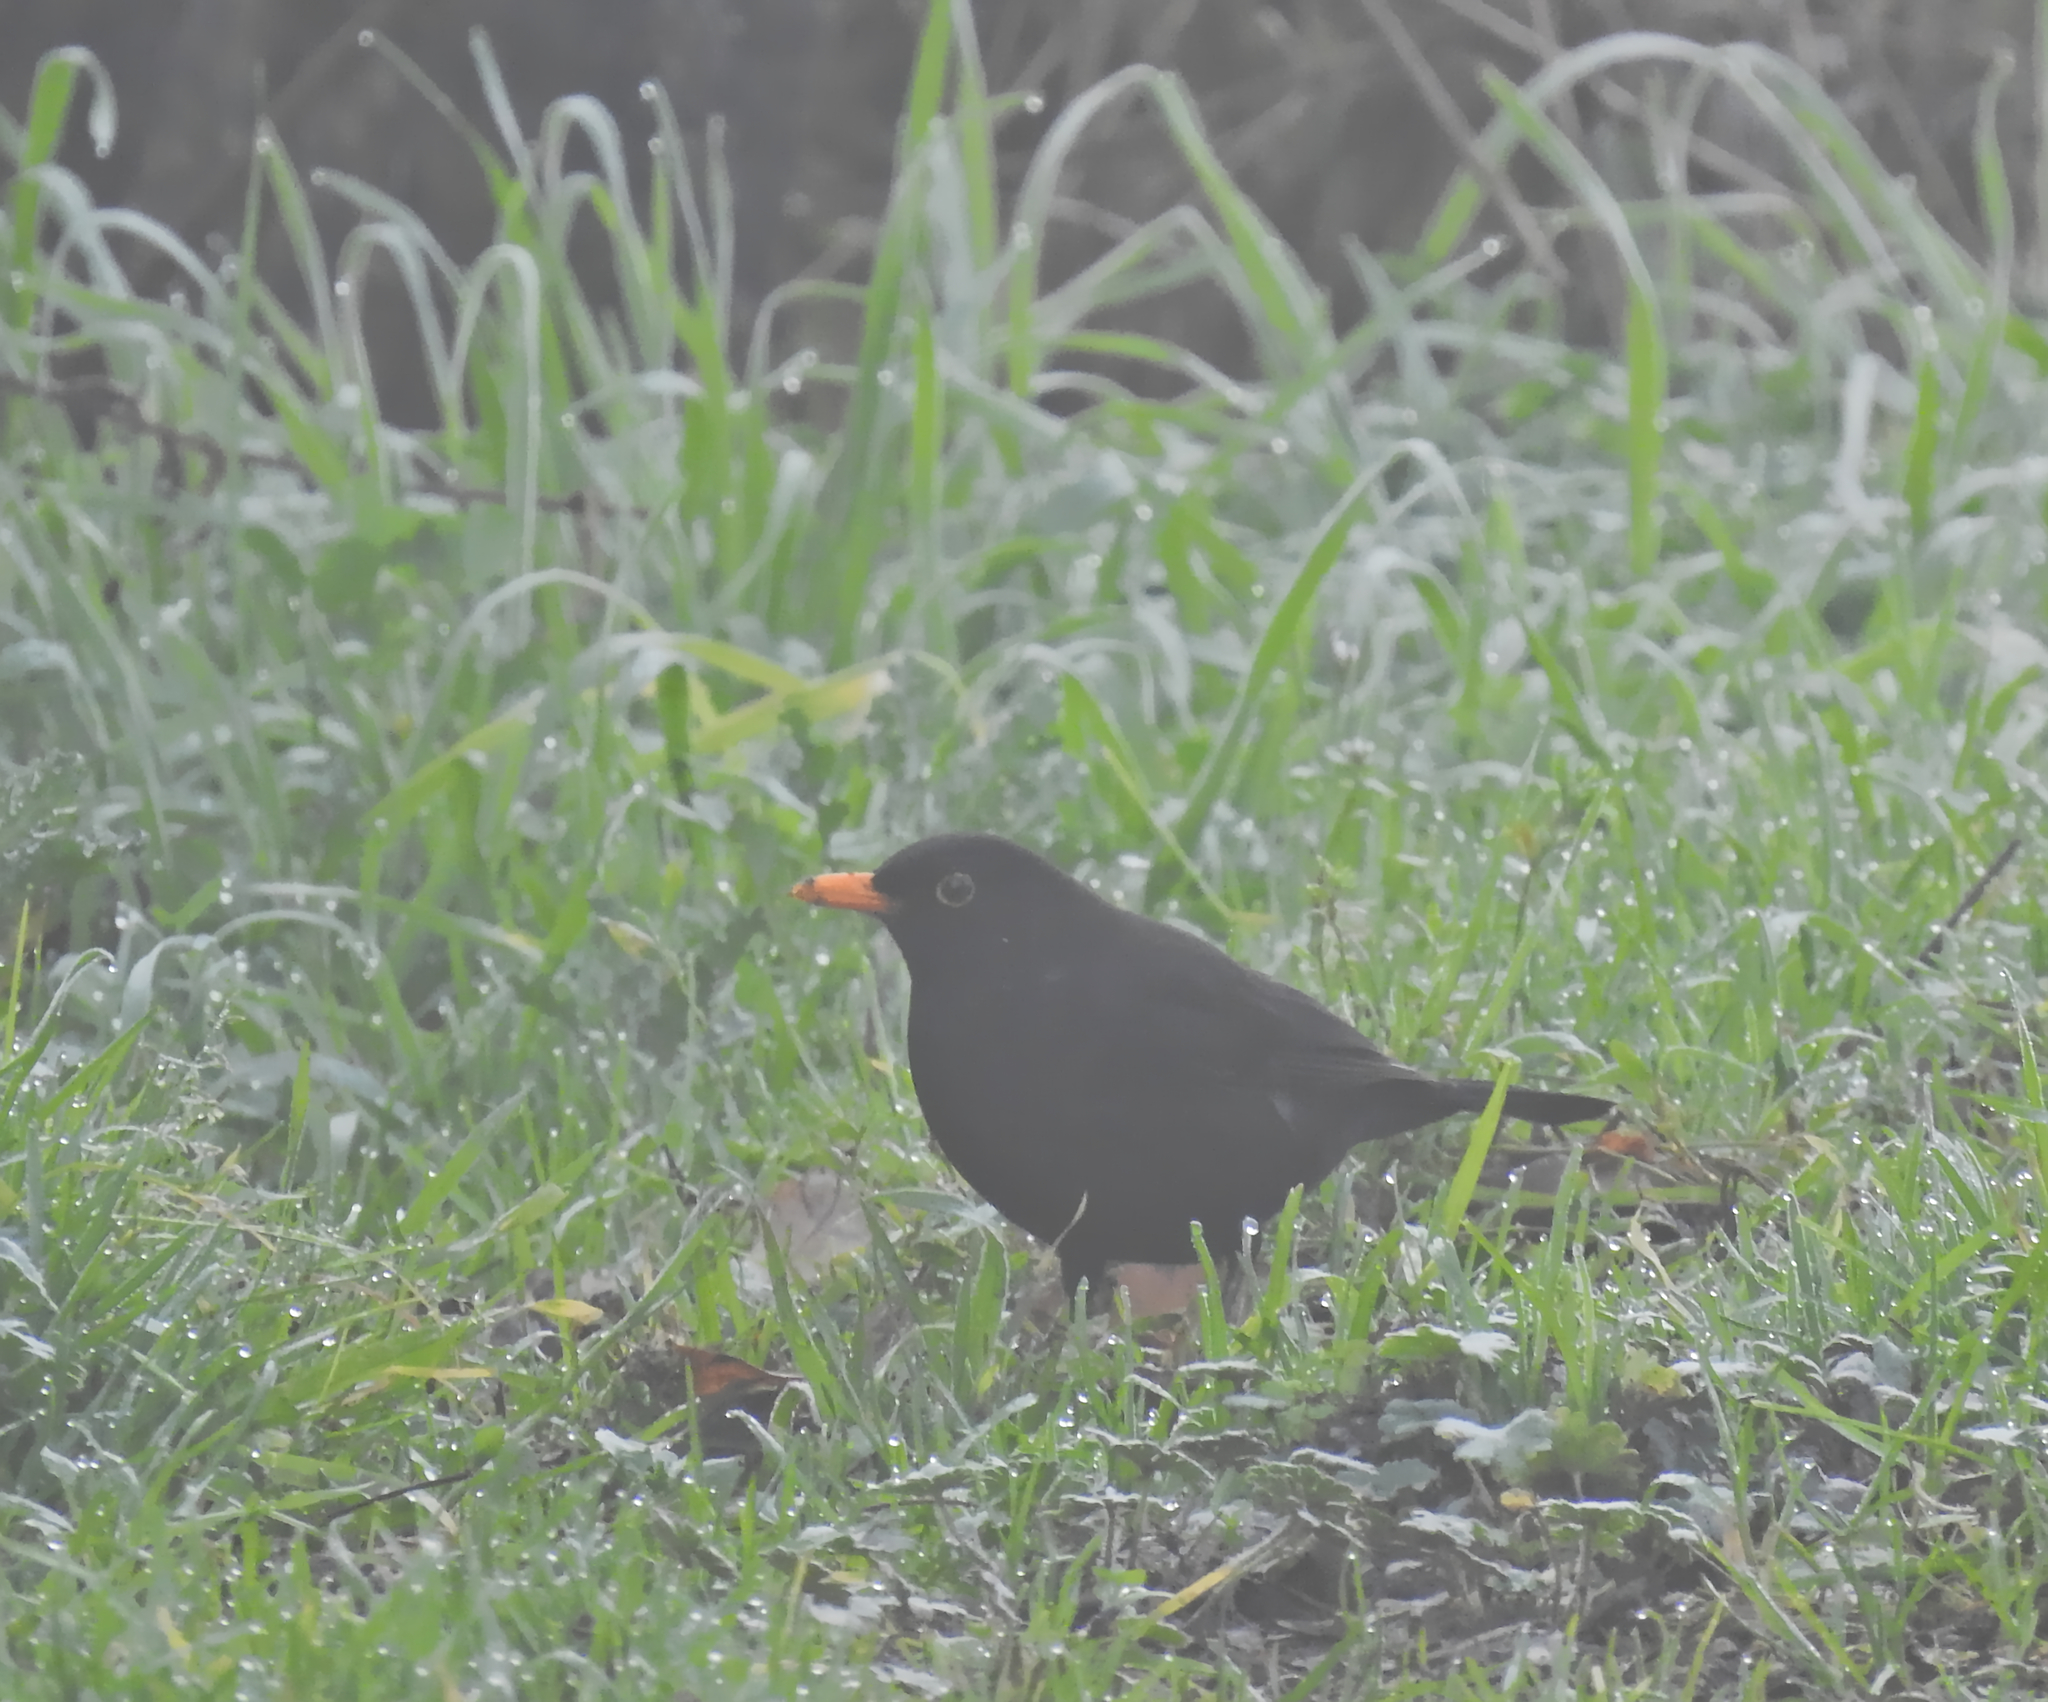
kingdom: Animalia
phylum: Chordata
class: Aves
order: Passeriformes
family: Turdidae
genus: Turdus
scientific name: Turdus merula
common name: Common blackbird
